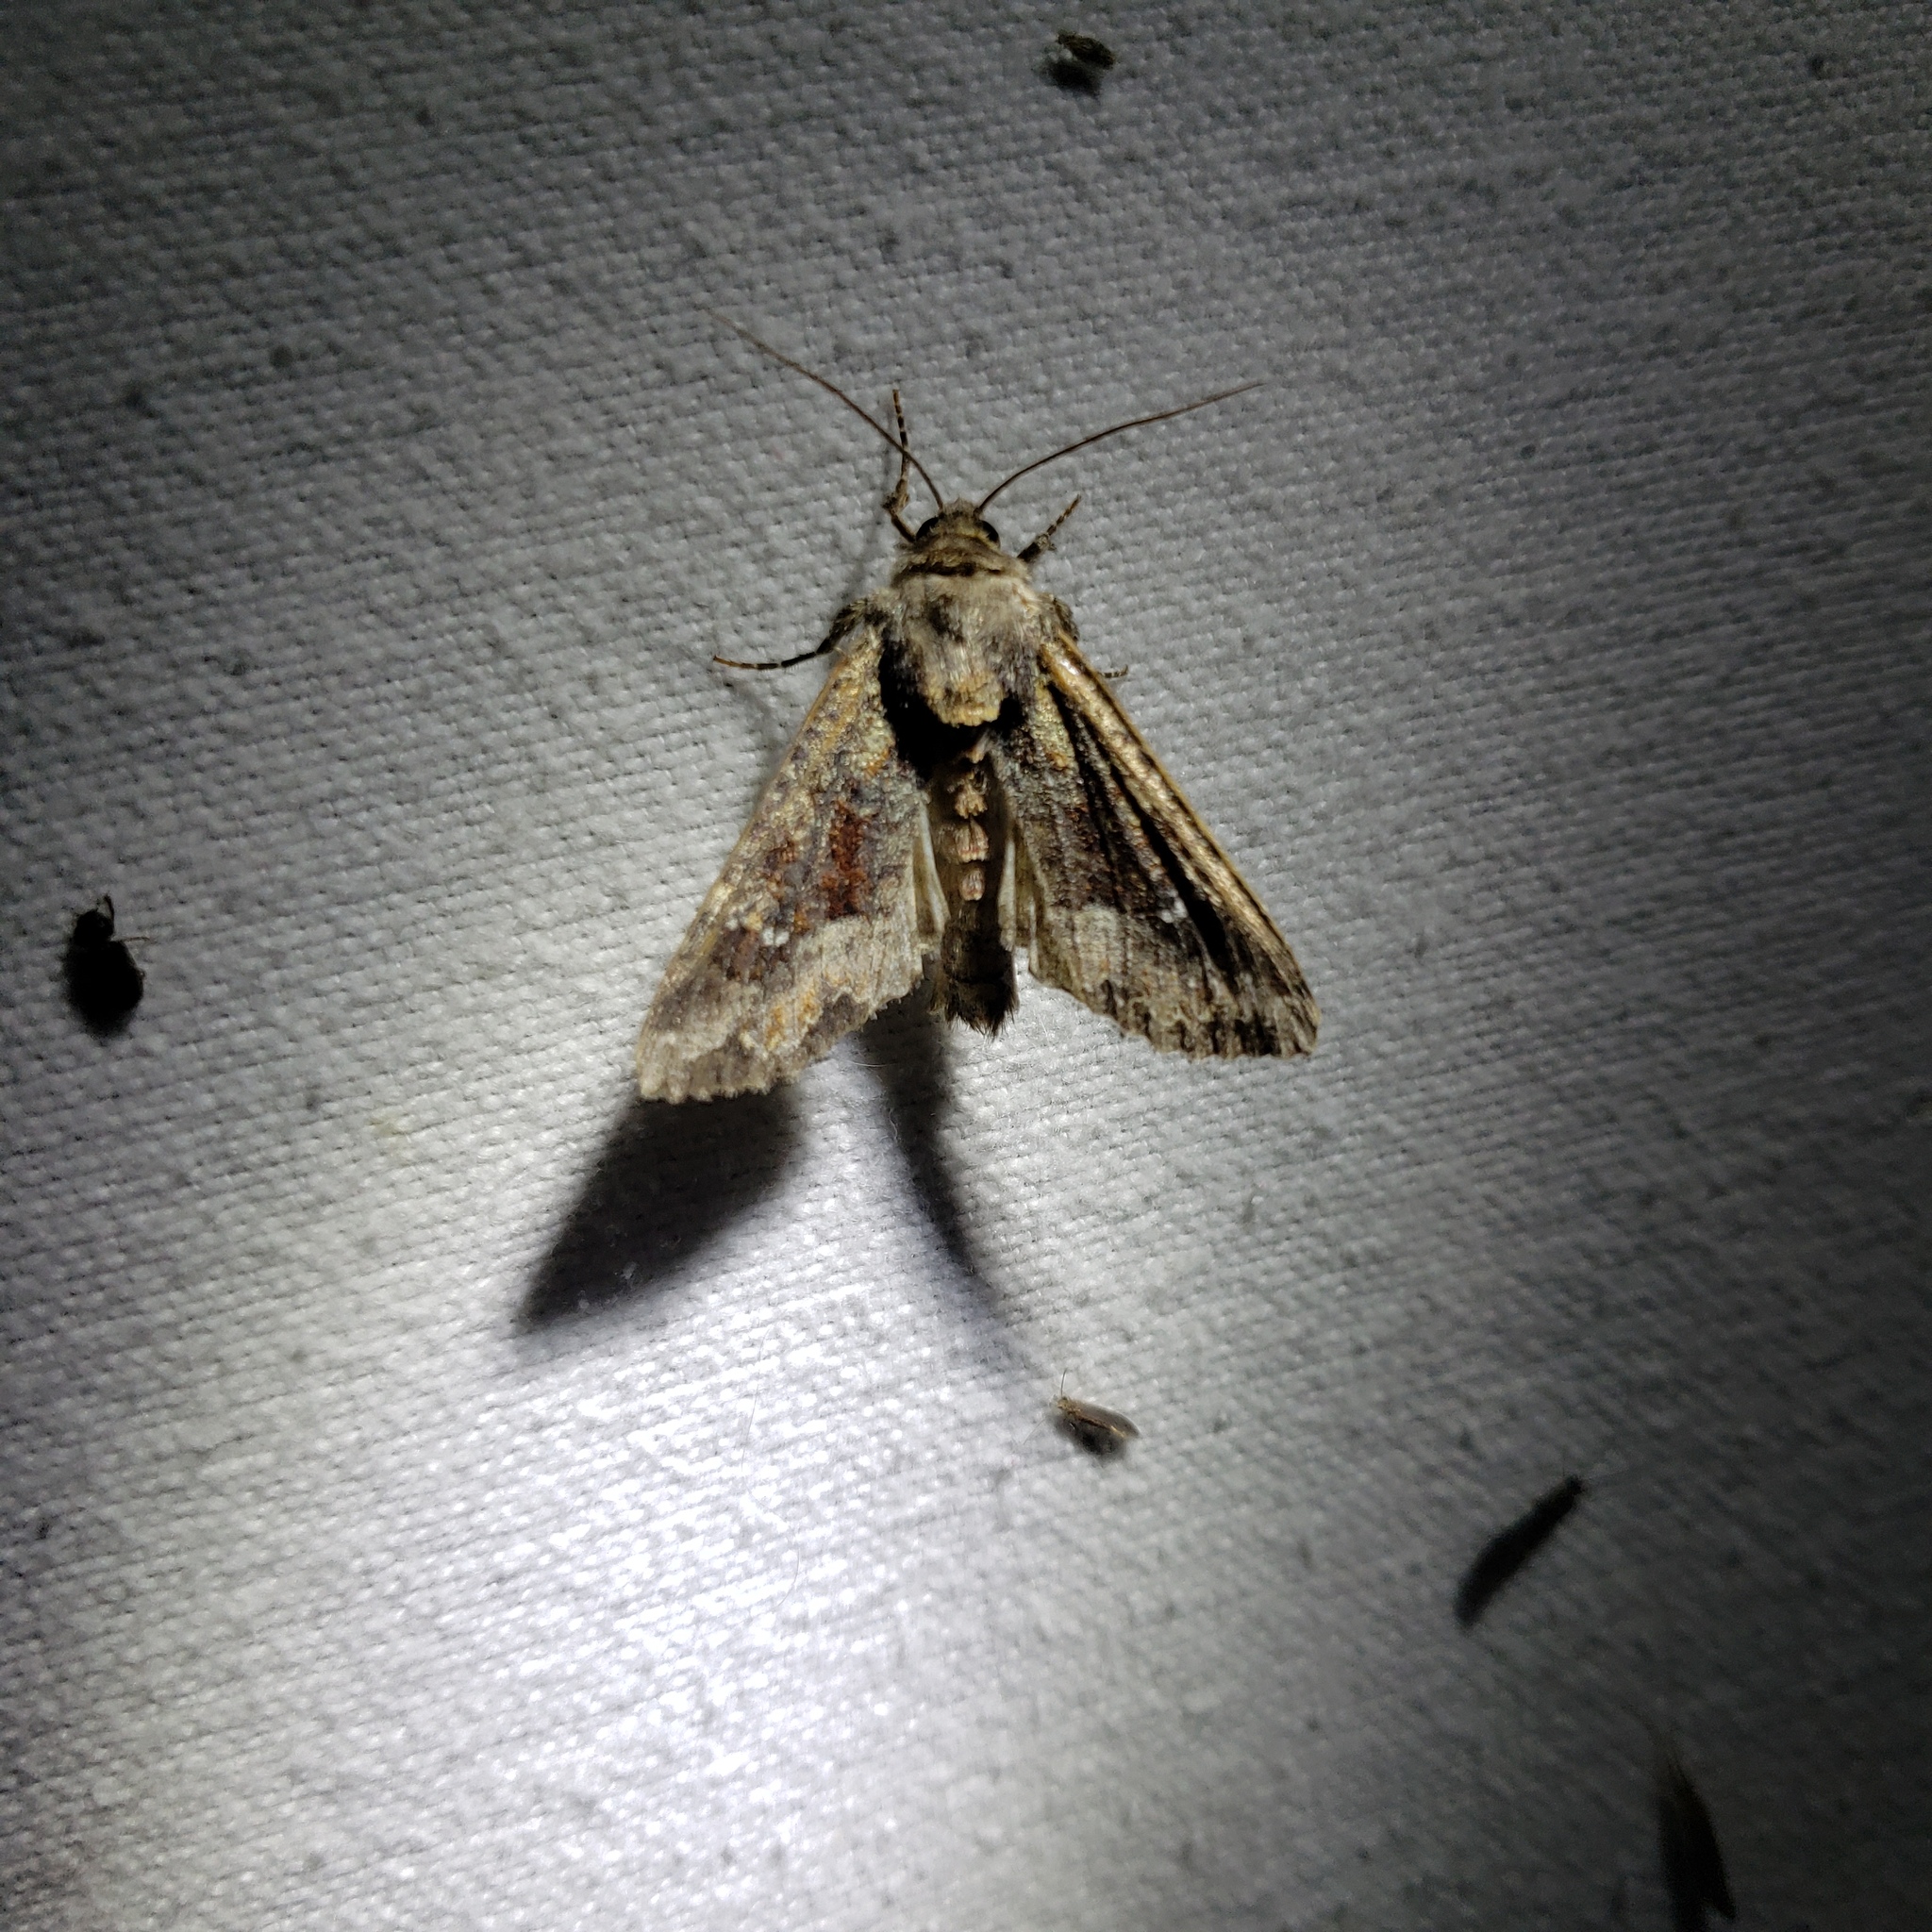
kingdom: Animalia
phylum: Arthropoda
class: Insecta
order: Lepidoptera
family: Noctuidae
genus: Apamea
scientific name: Apamea amputatrix
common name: Yellow-headed cutworm moth
